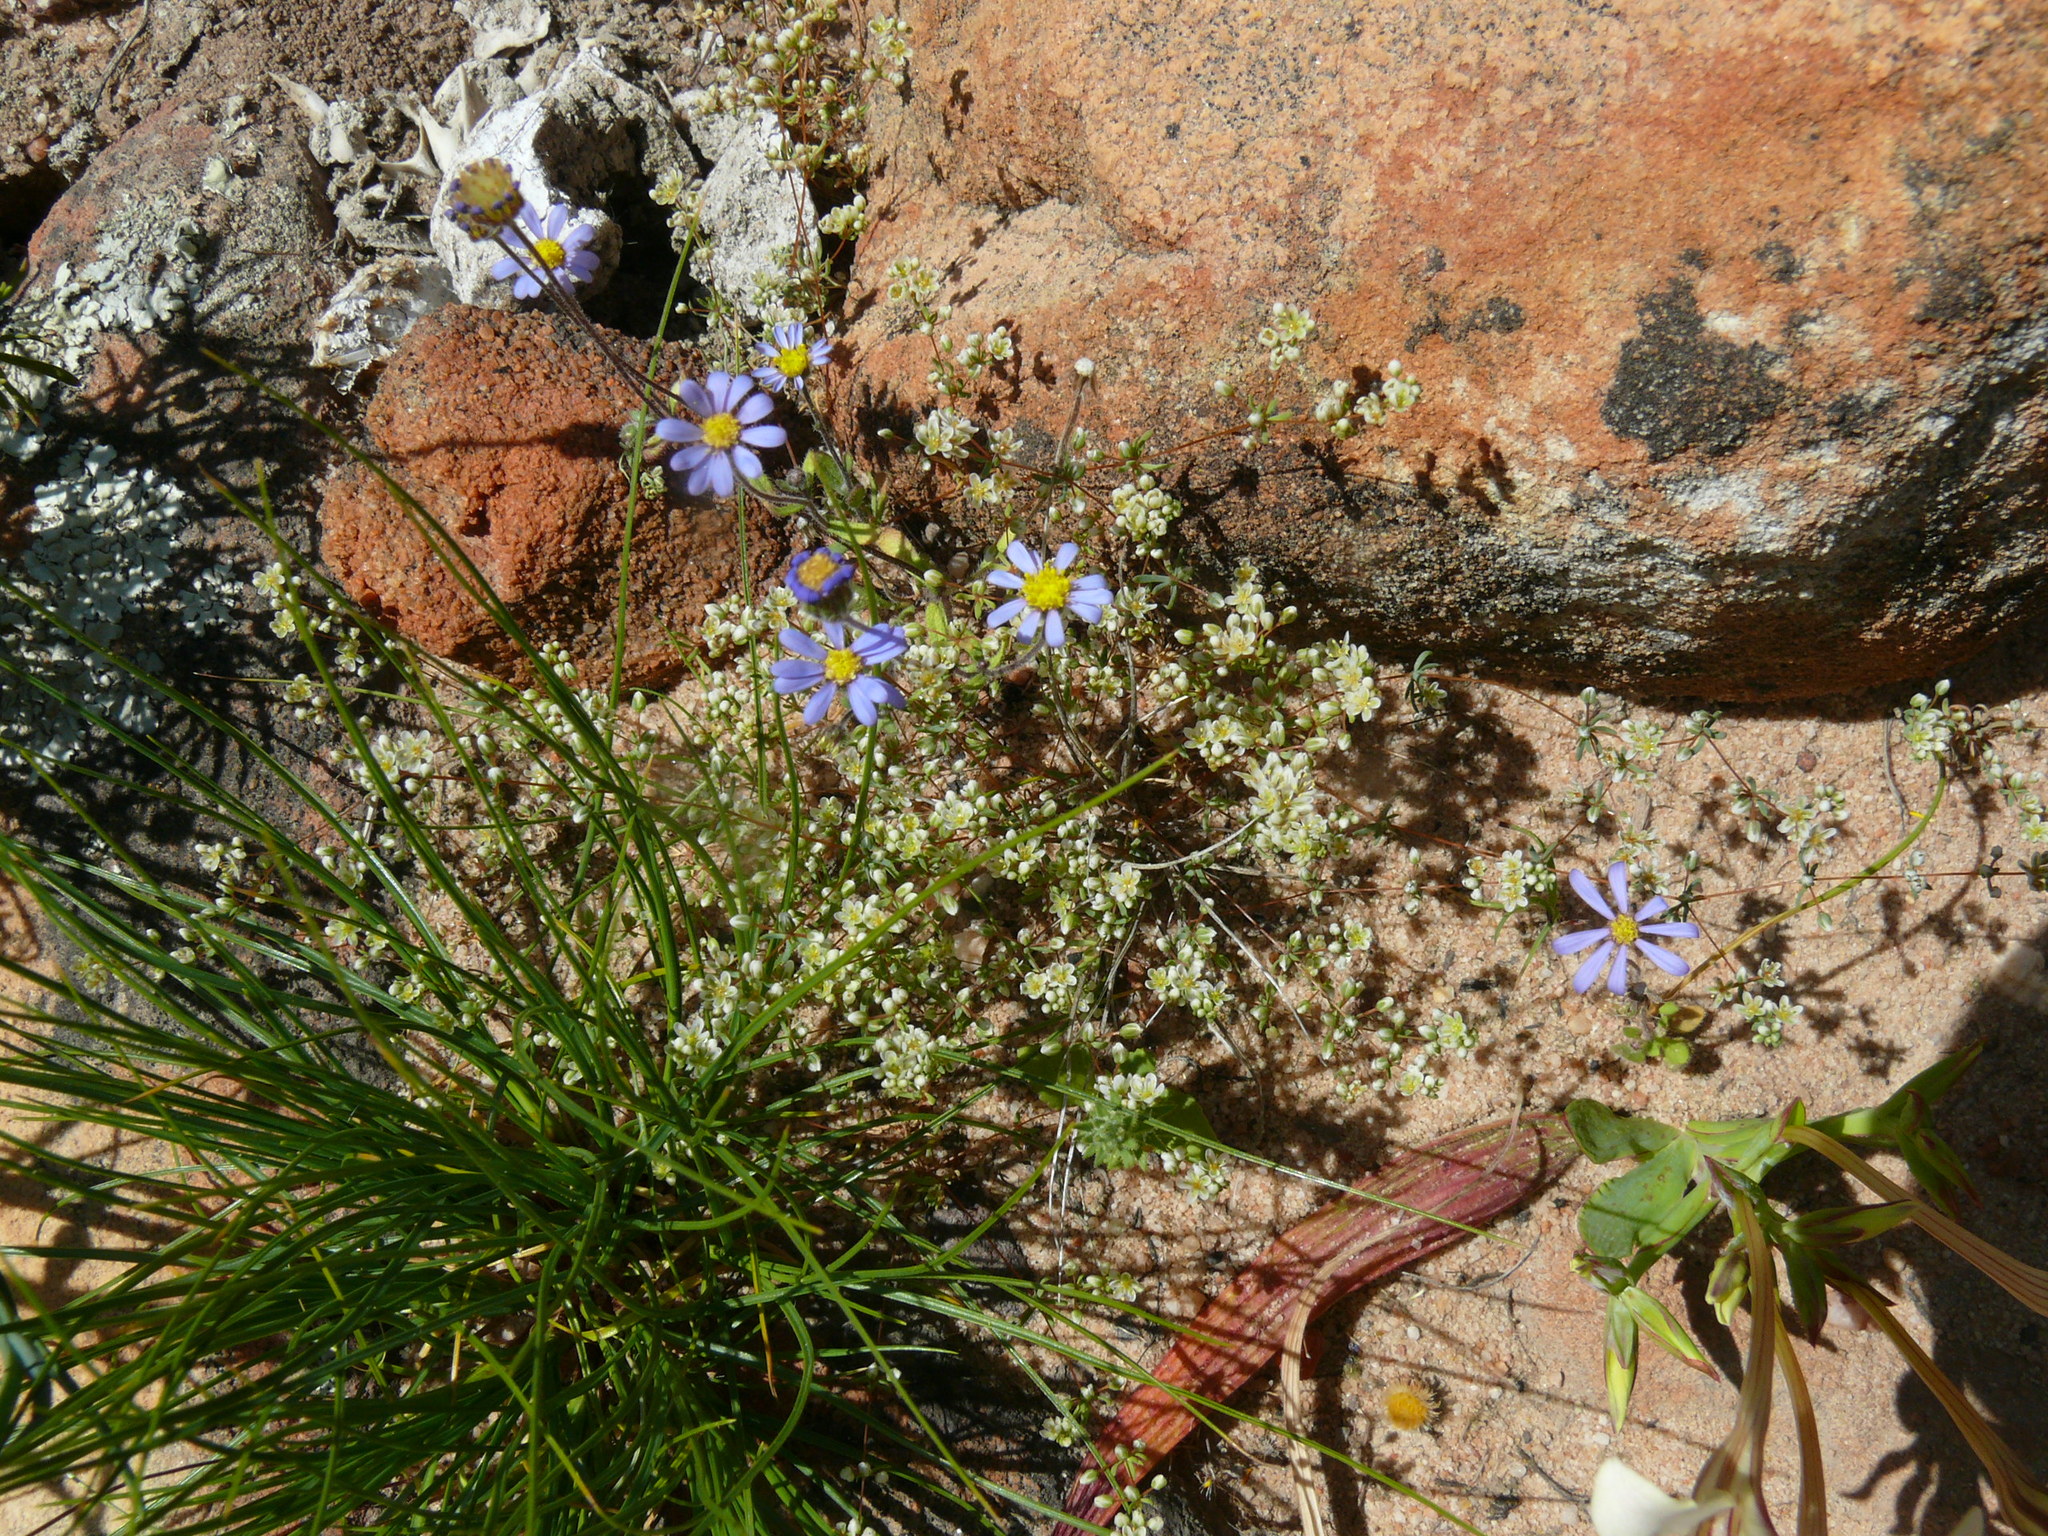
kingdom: Plantae
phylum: Tracheophyta
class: Magnoliopsida
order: Asterales
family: Asteraceae
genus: Felicia
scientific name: Felicia merxmuelleri
